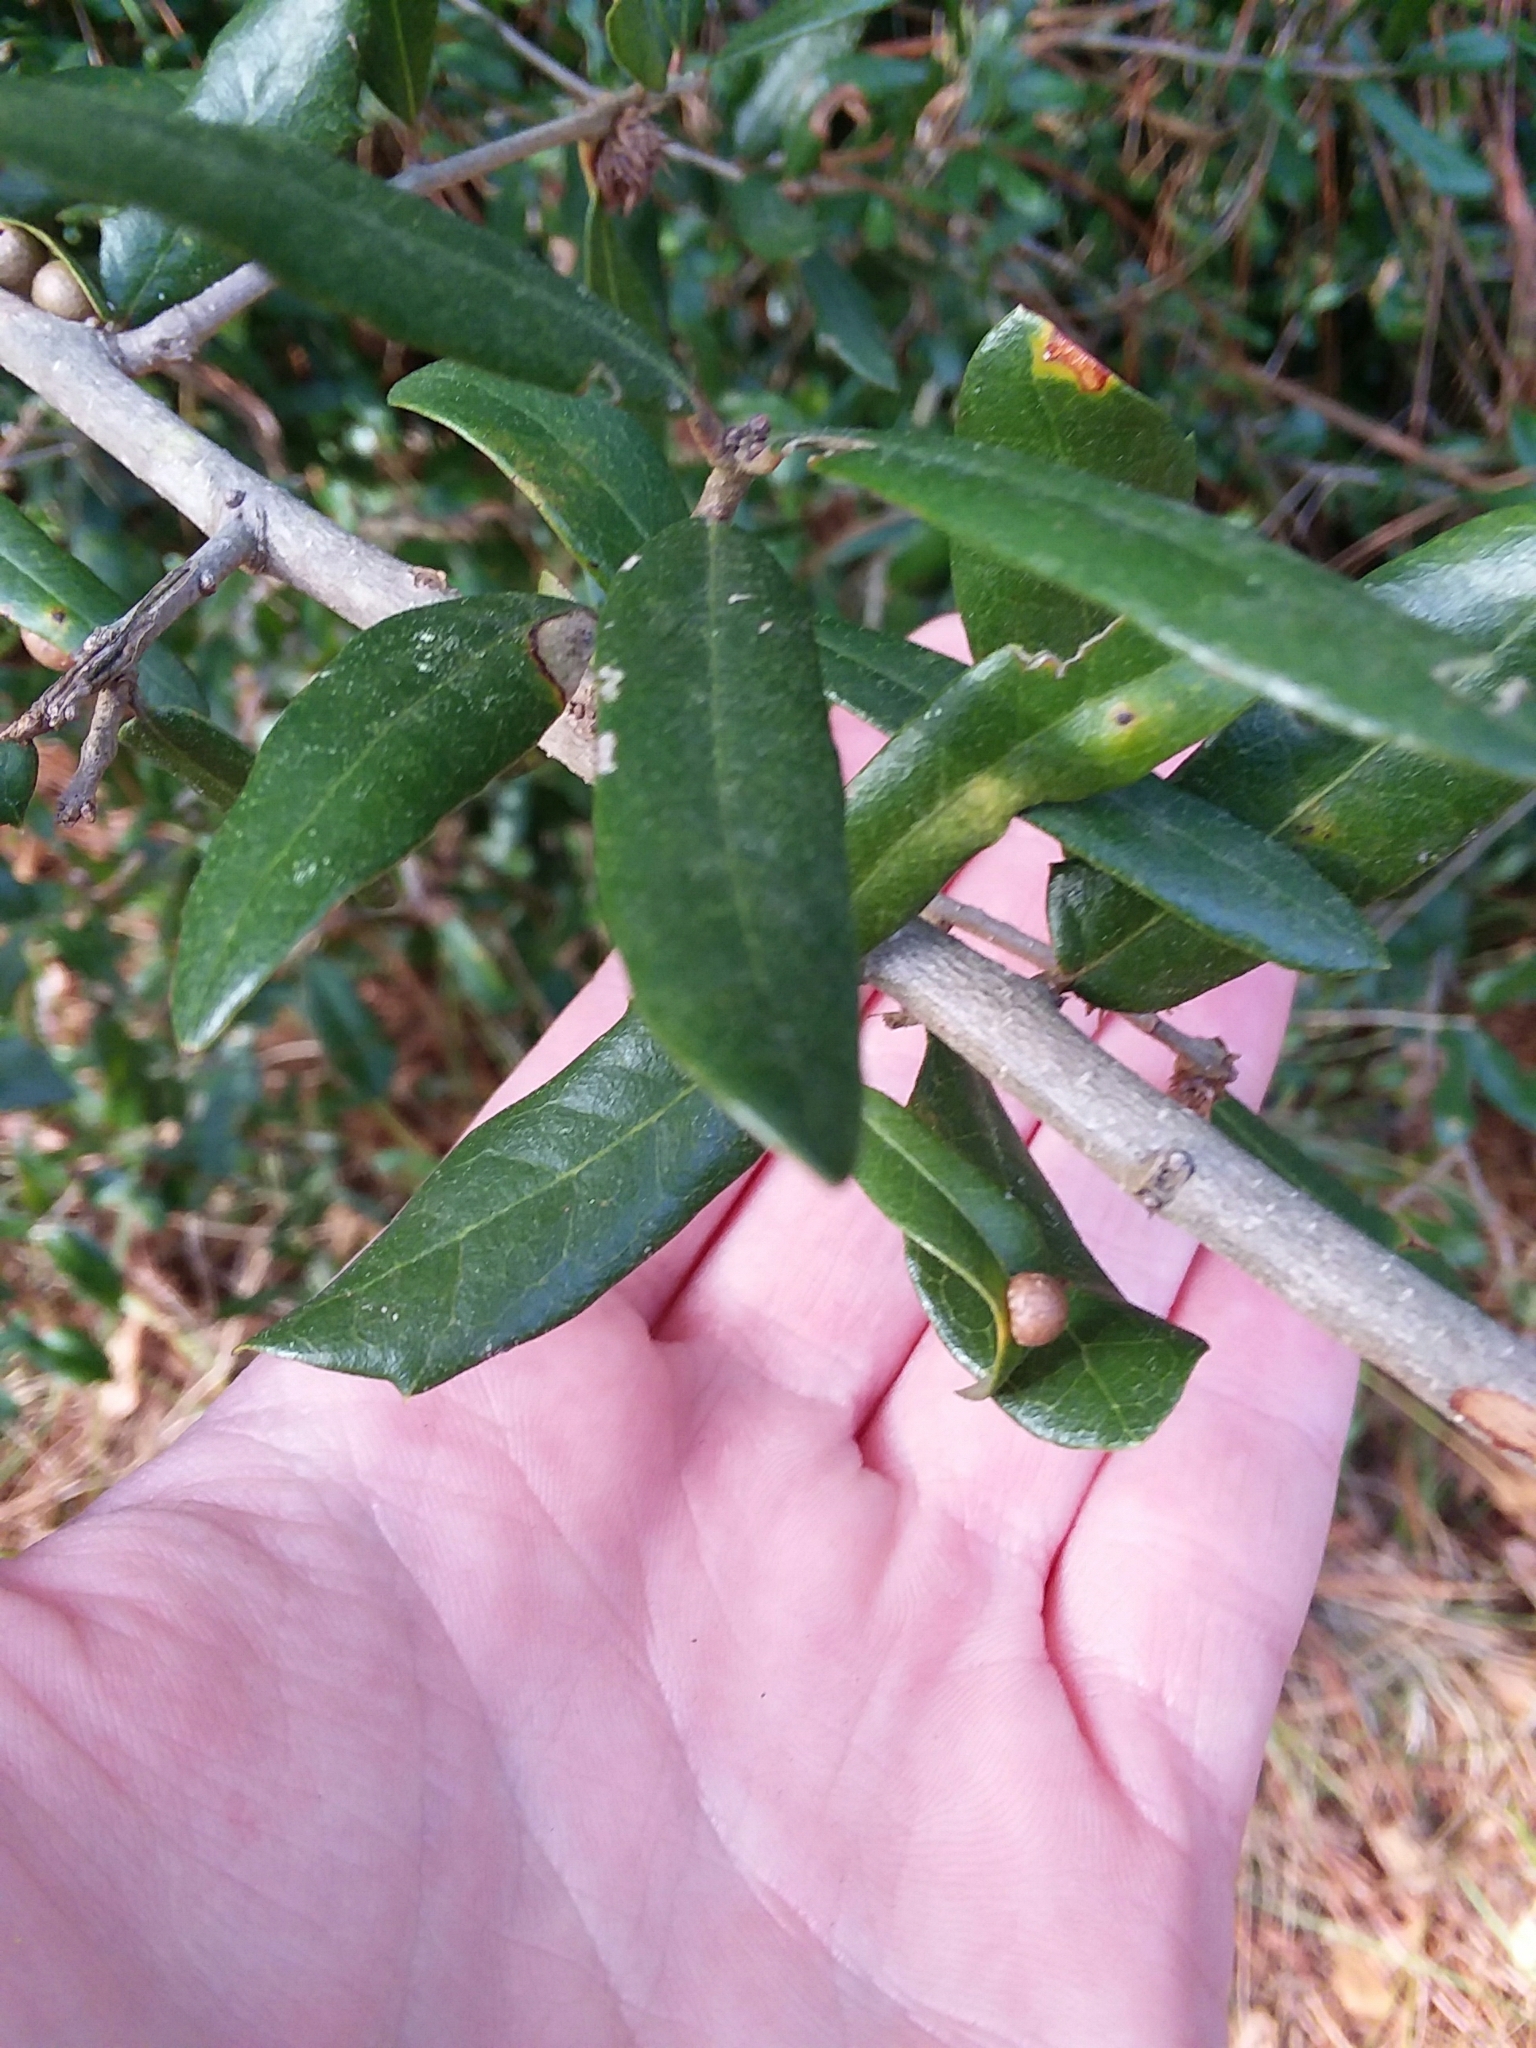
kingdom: Animalia
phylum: Arthropoda
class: Insecta
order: Hymenoptera
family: Cynipidae
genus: Belonocnema
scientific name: Belonocnema treatae
